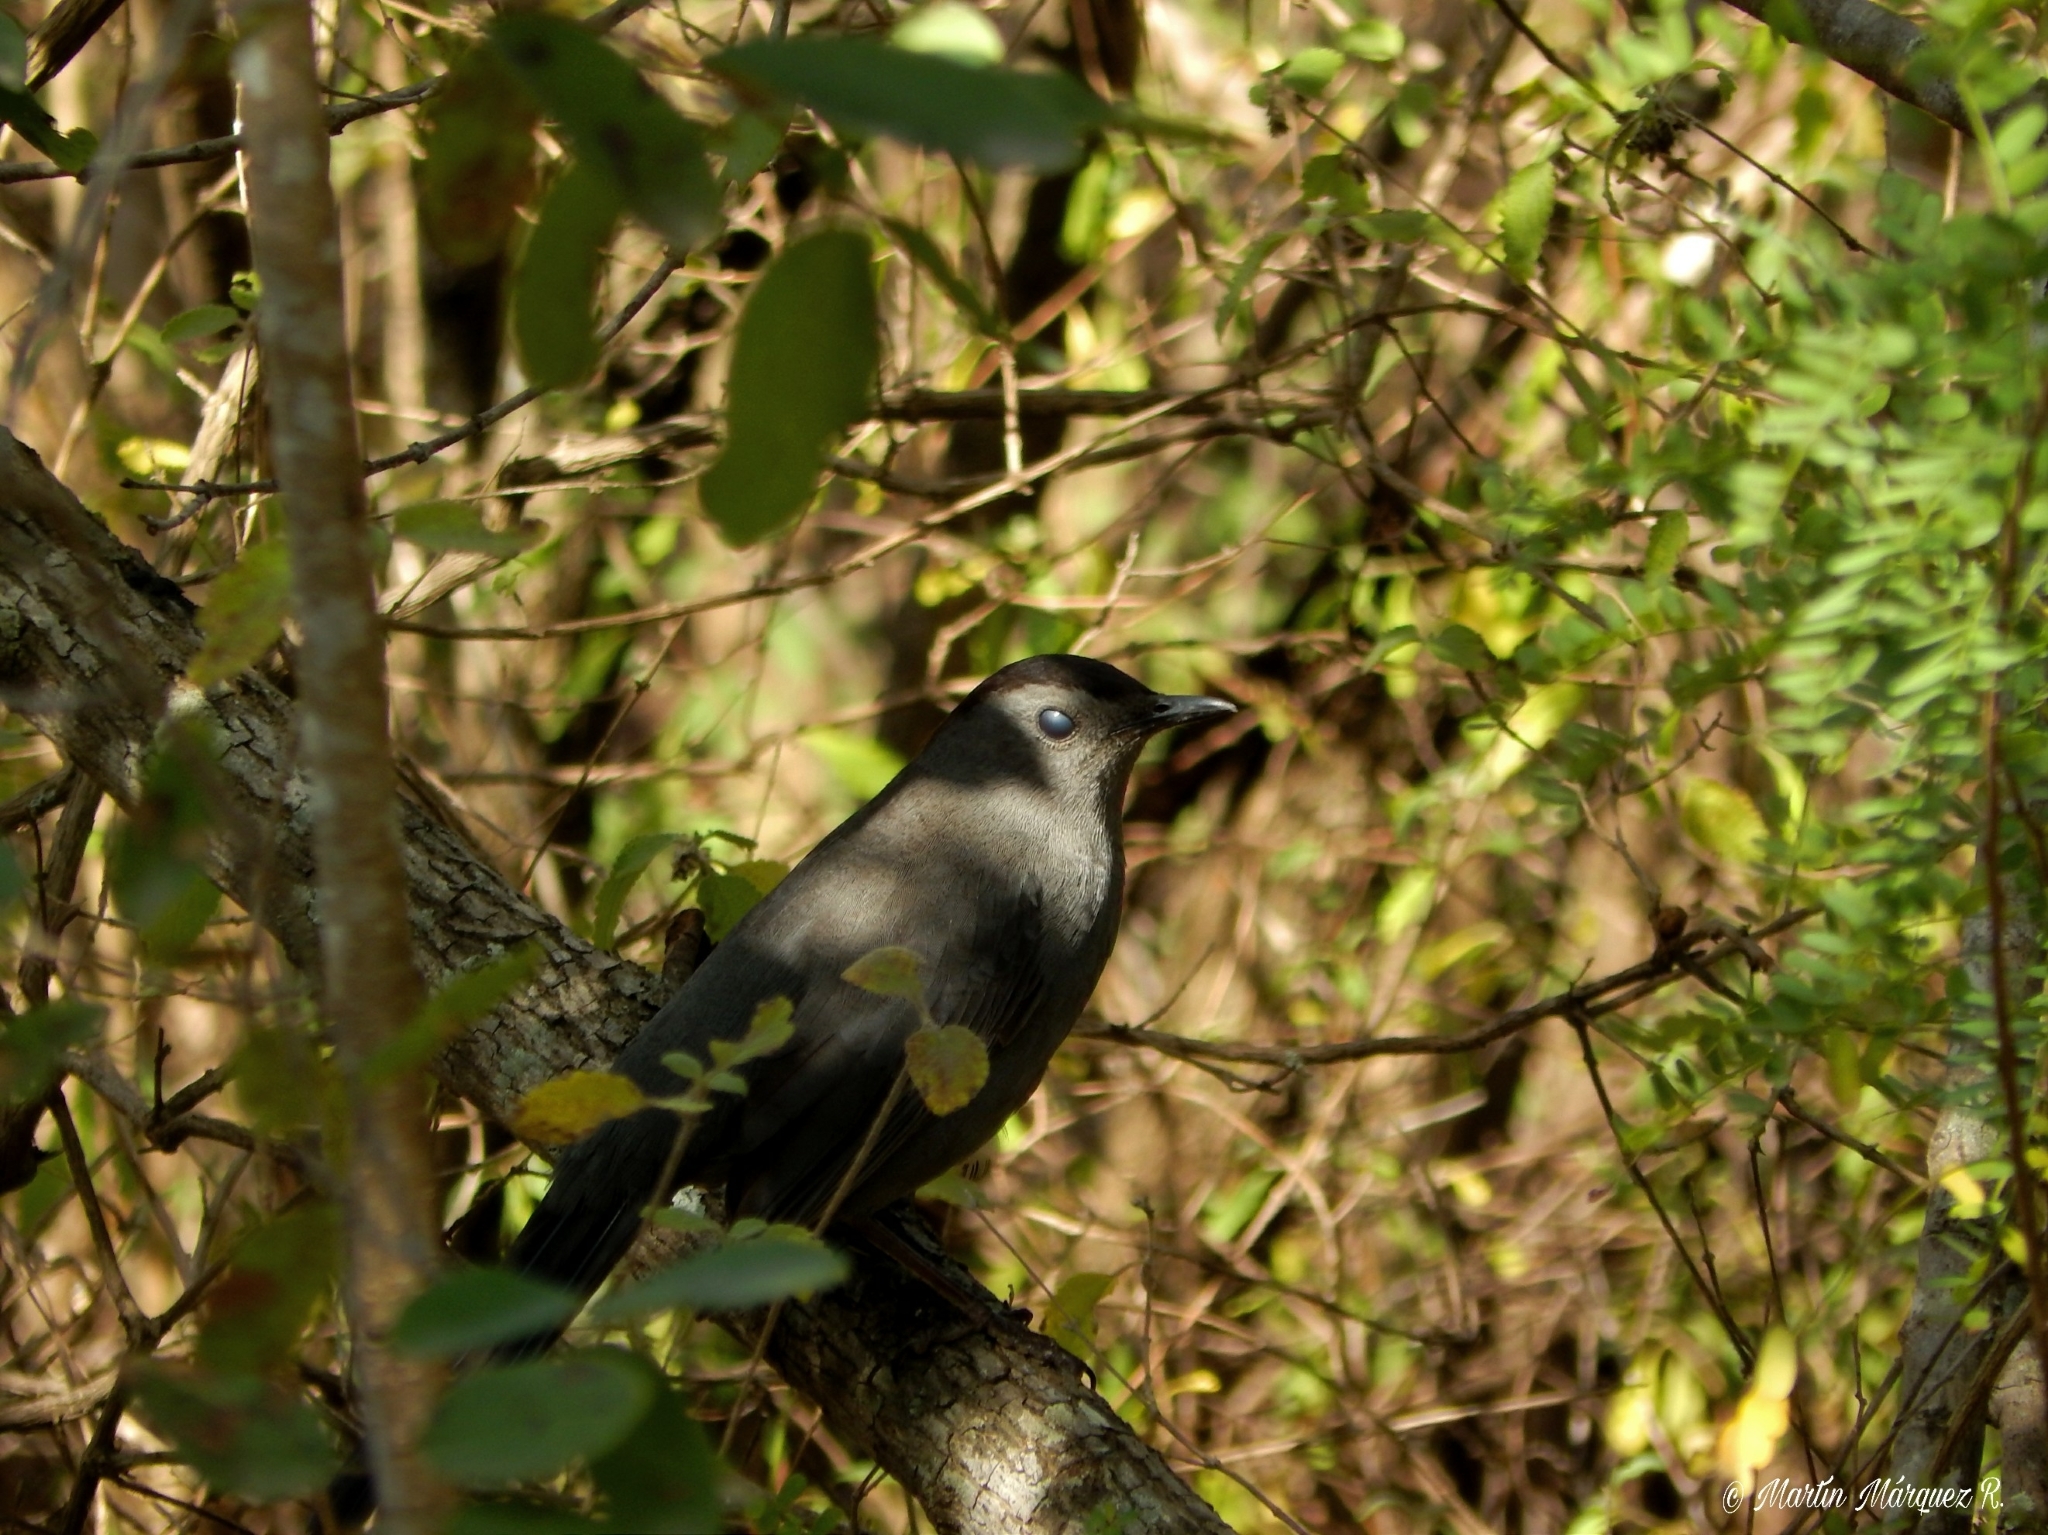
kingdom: Animalia
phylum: Chordata
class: Aves
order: Passeriformes
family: Mimidae
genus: Dumetella
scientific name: Dumetella carolinensis
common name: Gray catbird
